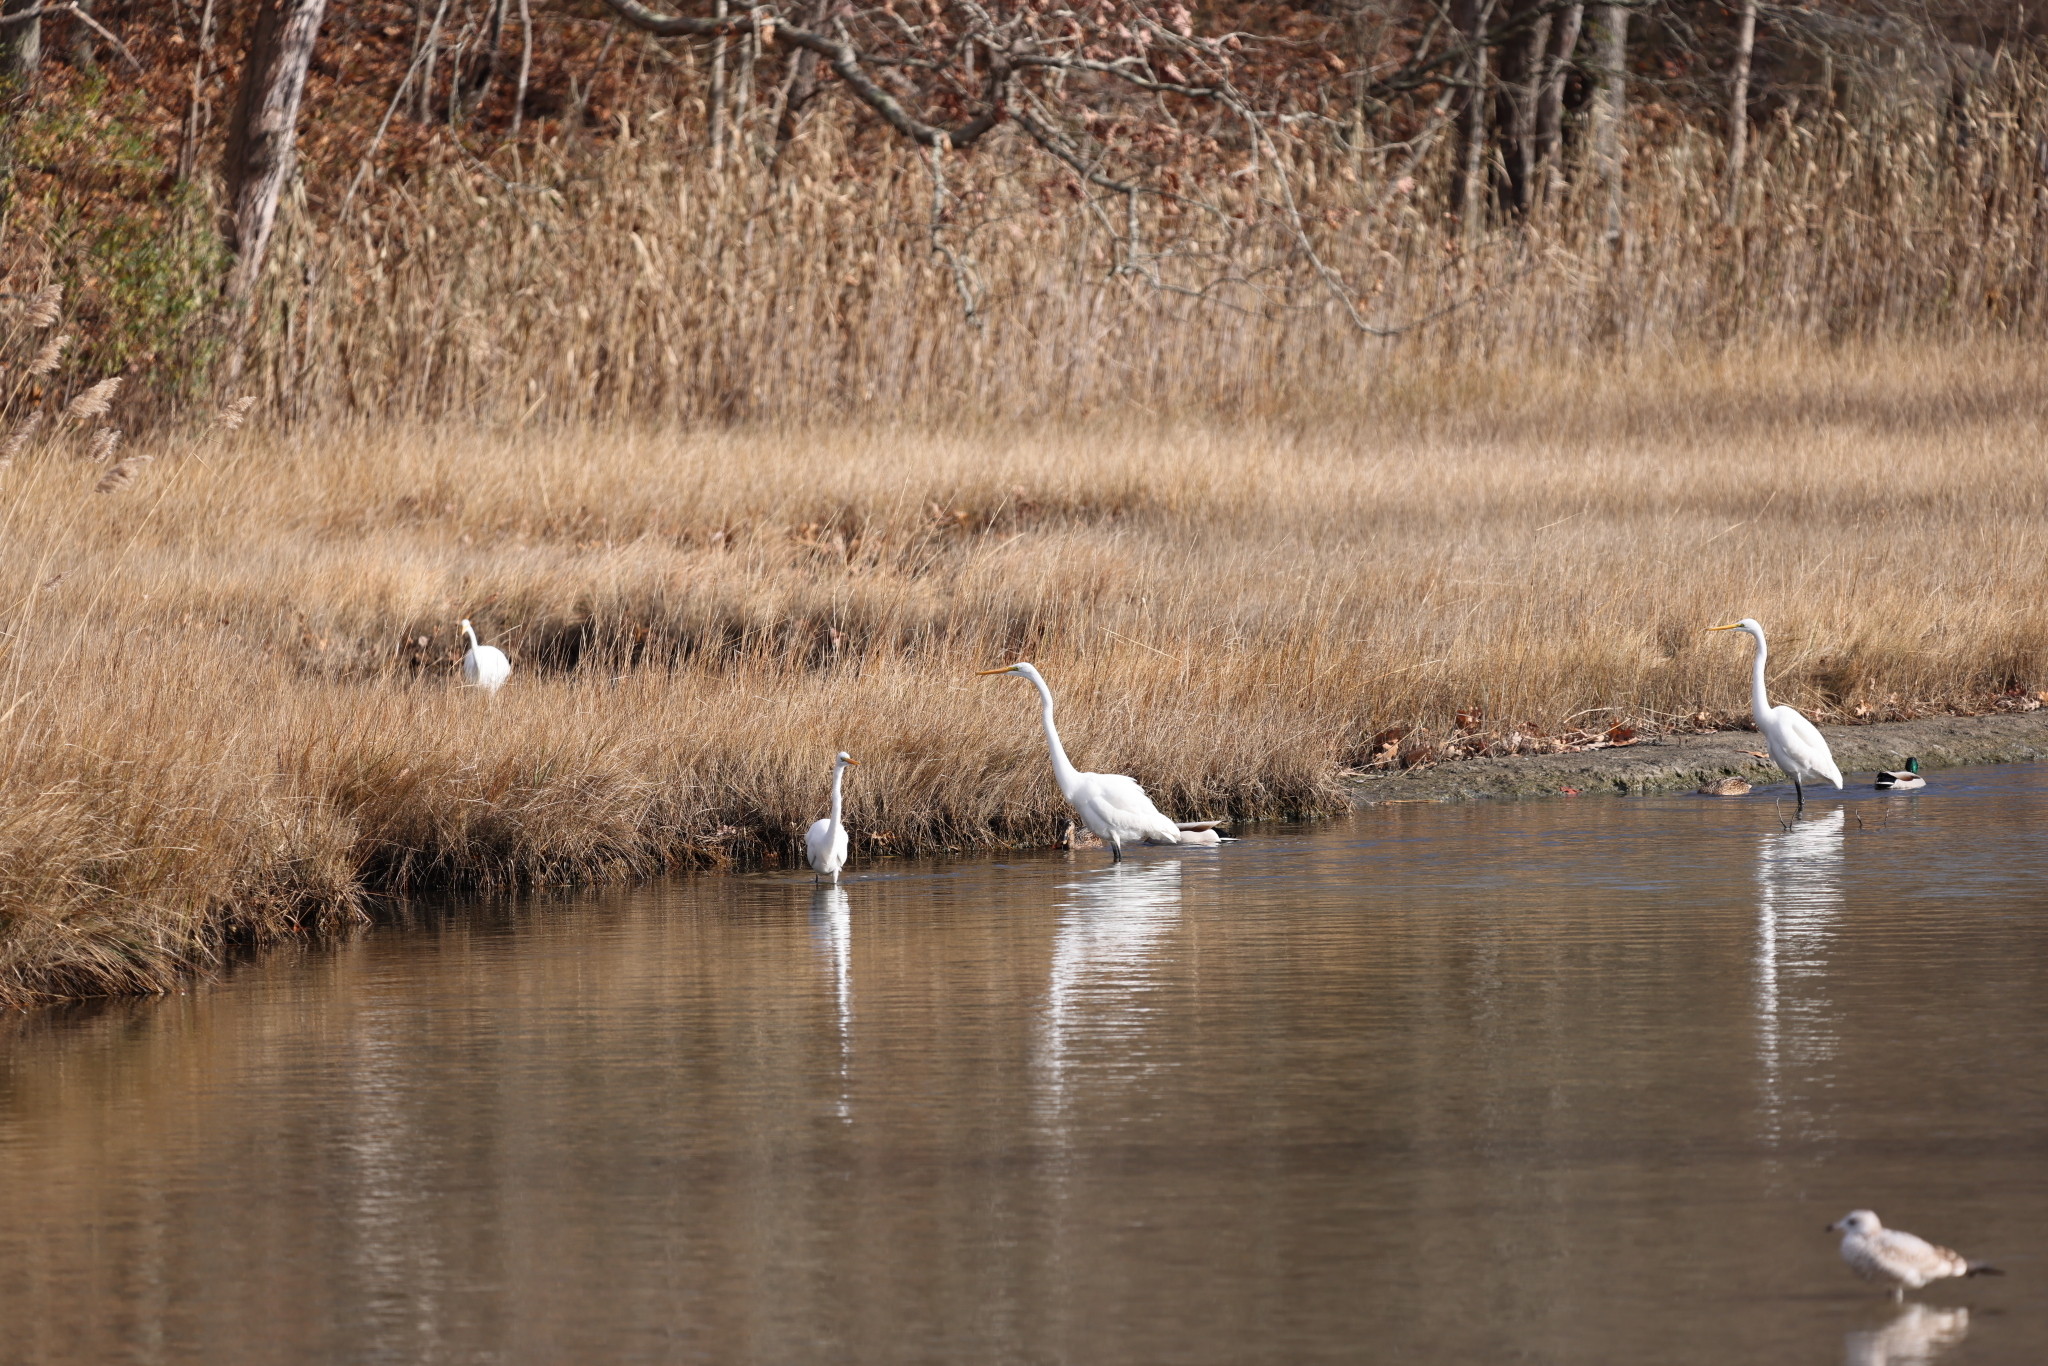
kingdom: Animalia
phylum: Chordata
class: Aves
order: Pelecaniformes
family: Ardeidae
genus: Ardea
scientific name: Ardea alba
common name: Great egret
